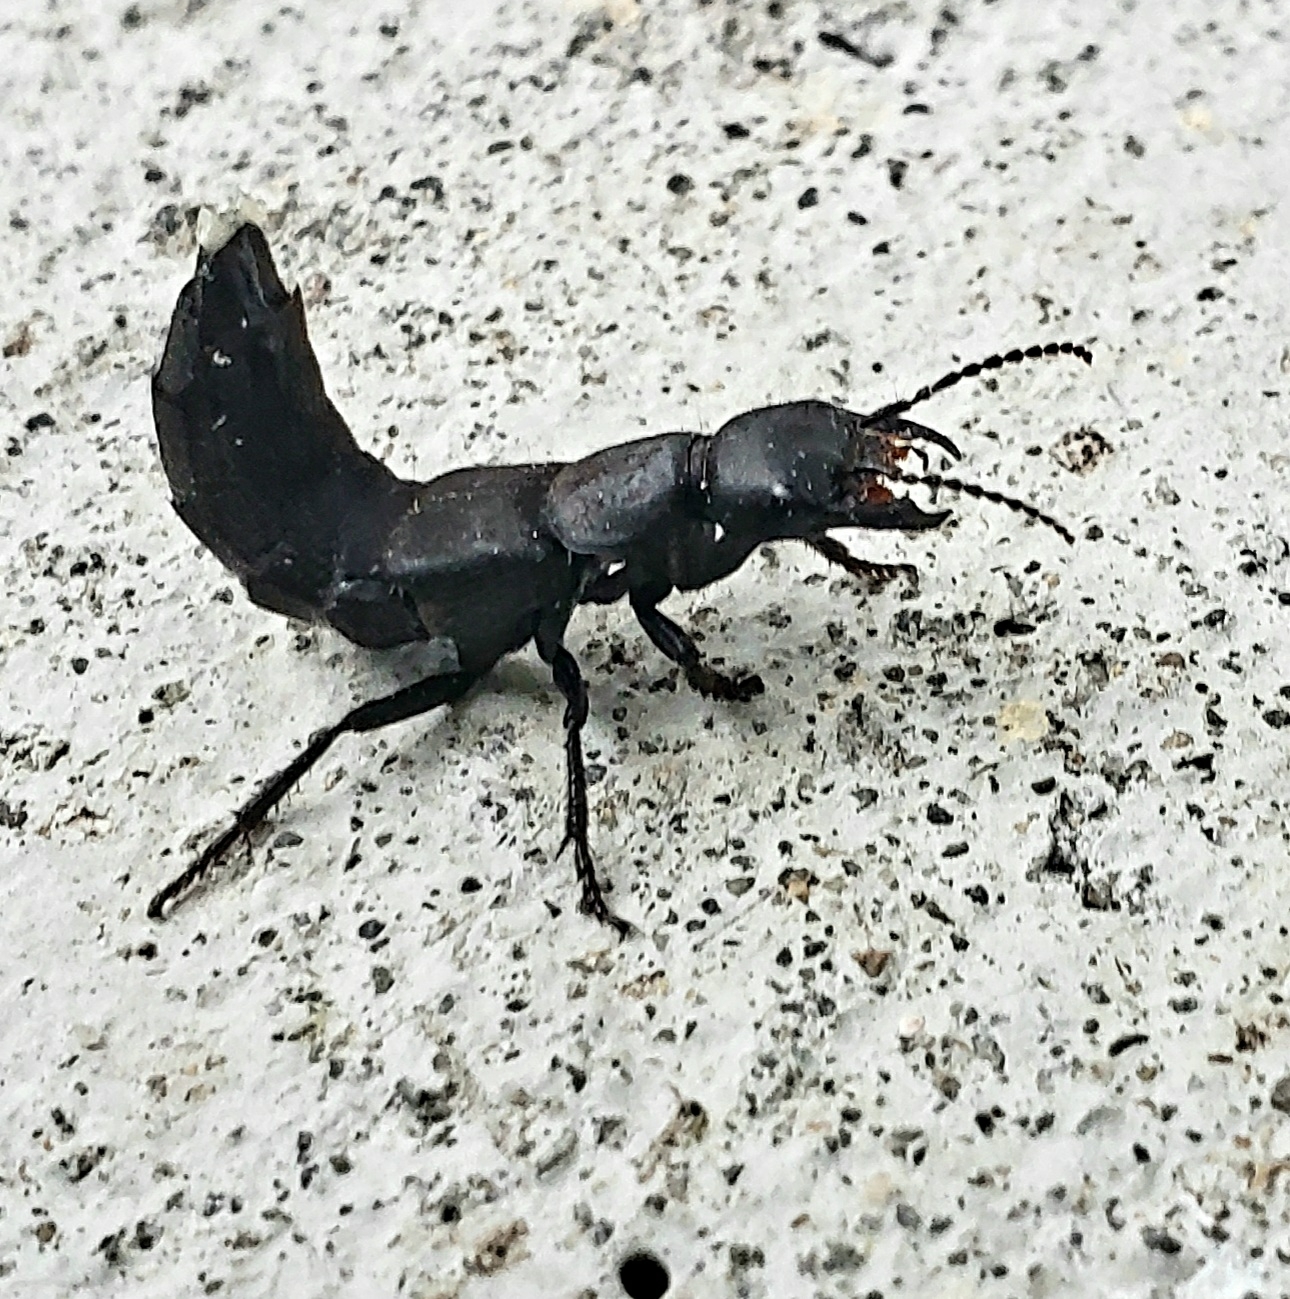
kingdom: Animalia
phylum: Arthropoda
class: Insecta
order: Coleoptera
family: Staphylinidae
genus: Ocypus
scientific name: Ocypus olens
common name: Devil's coach-horse
